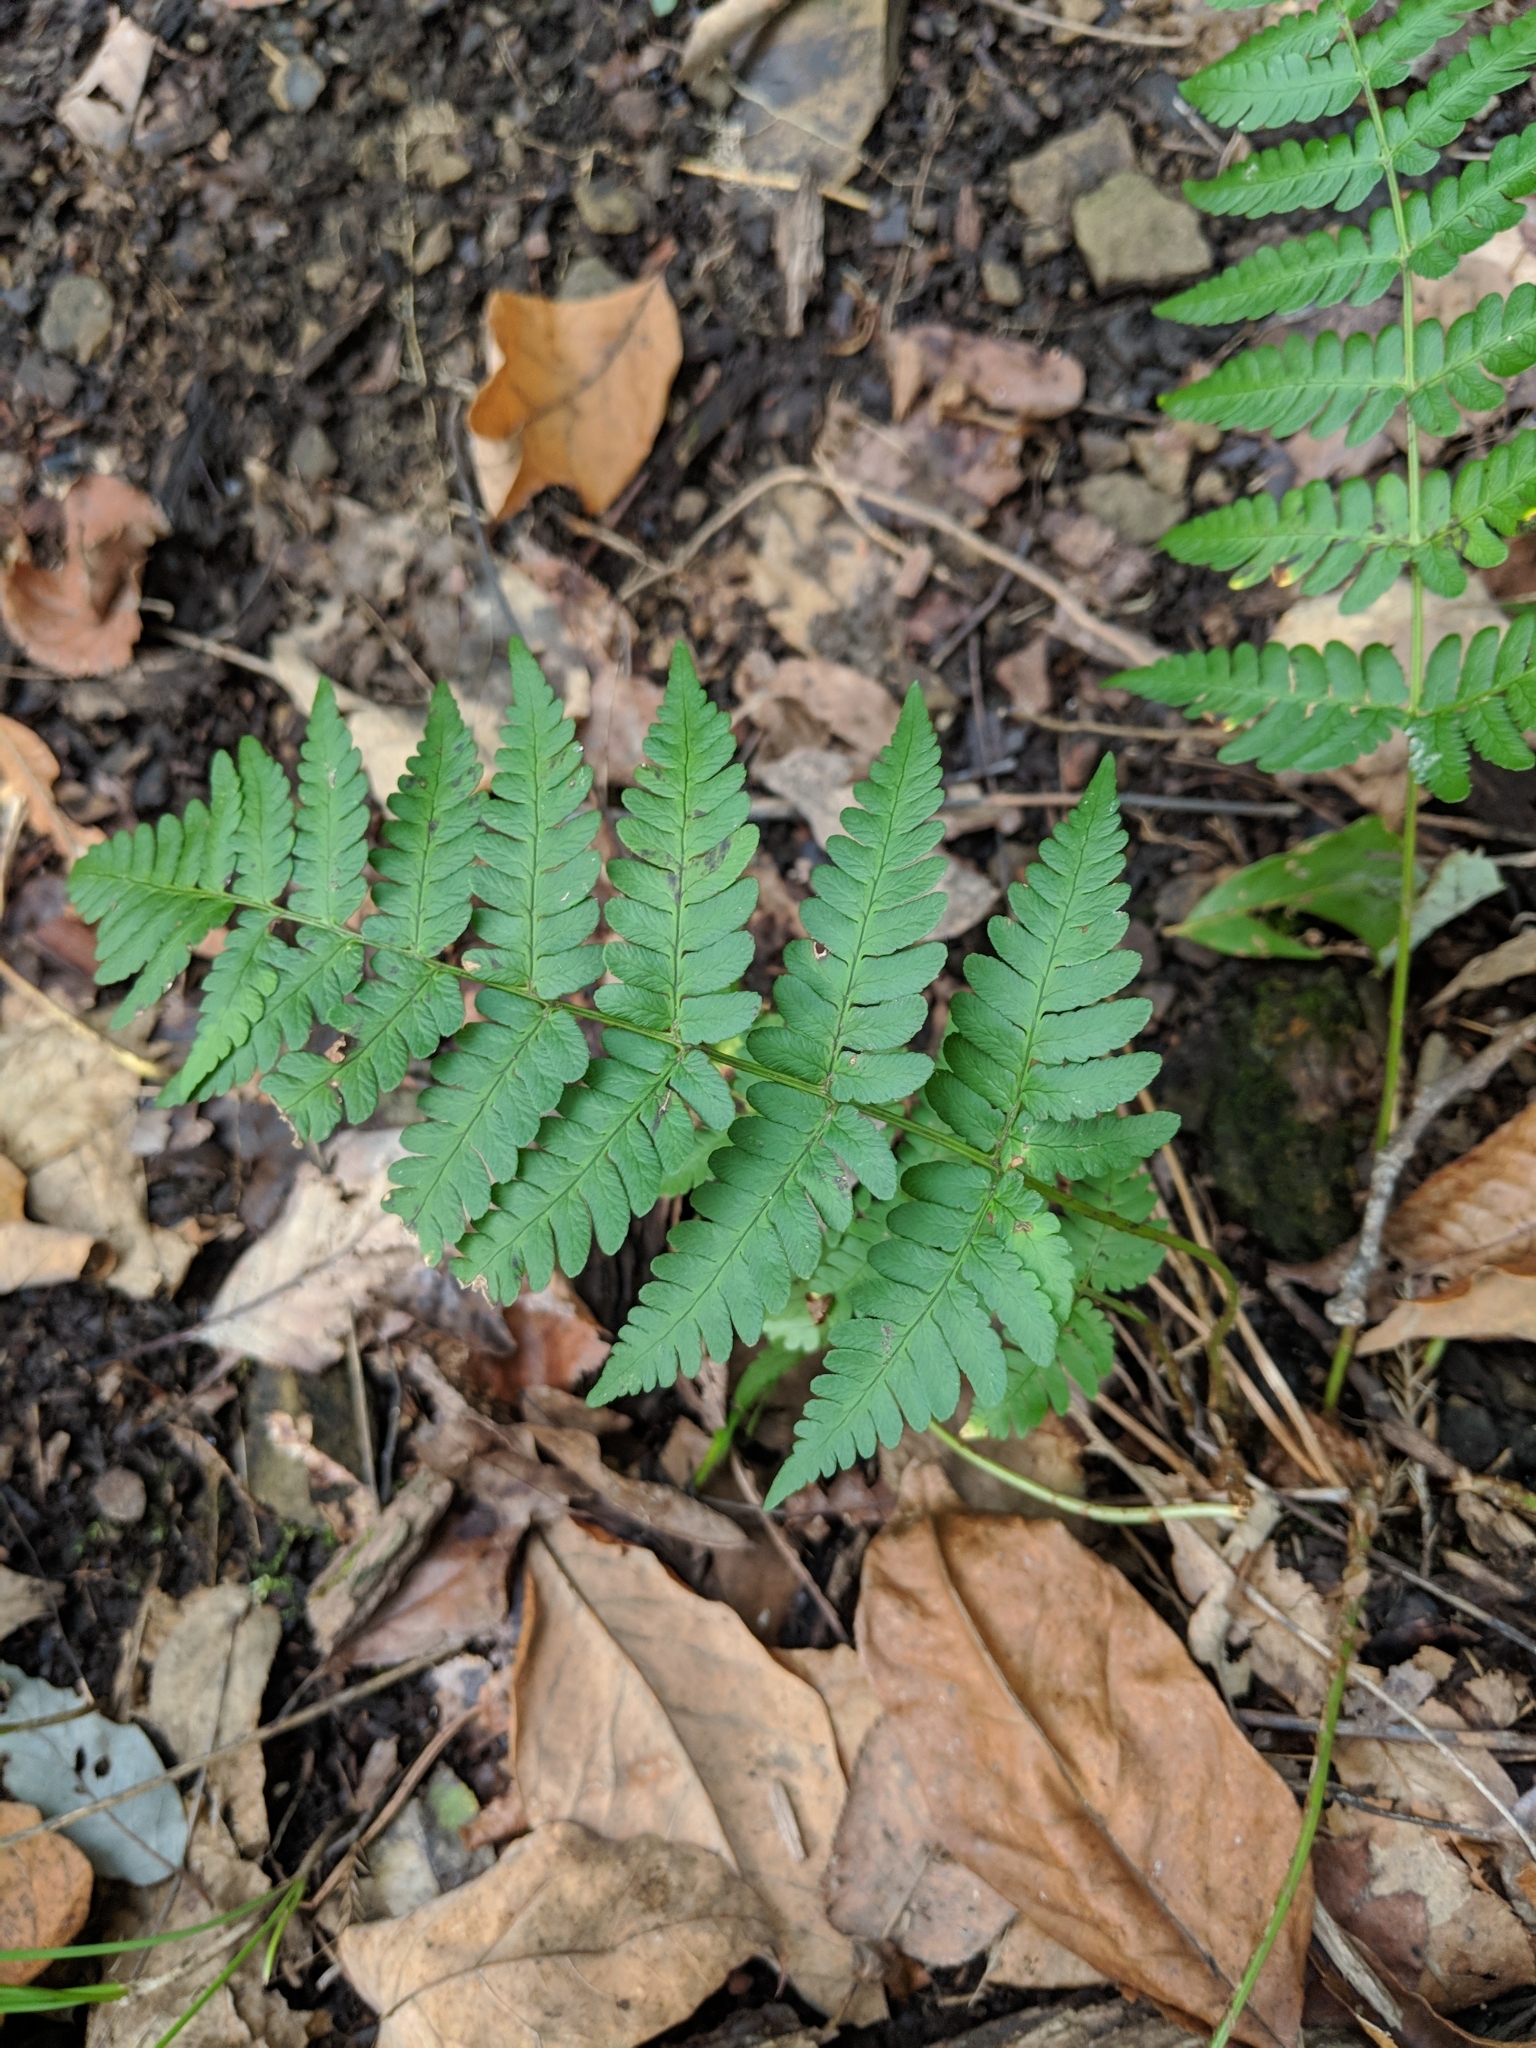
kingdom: Plantae
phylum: Tracheophyta
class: Polypodiopsida
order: Polypodiales
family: Dryopteridaceae
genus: Dryopteris
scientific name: Dryopteris marginalis
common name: Marginal wood fern
